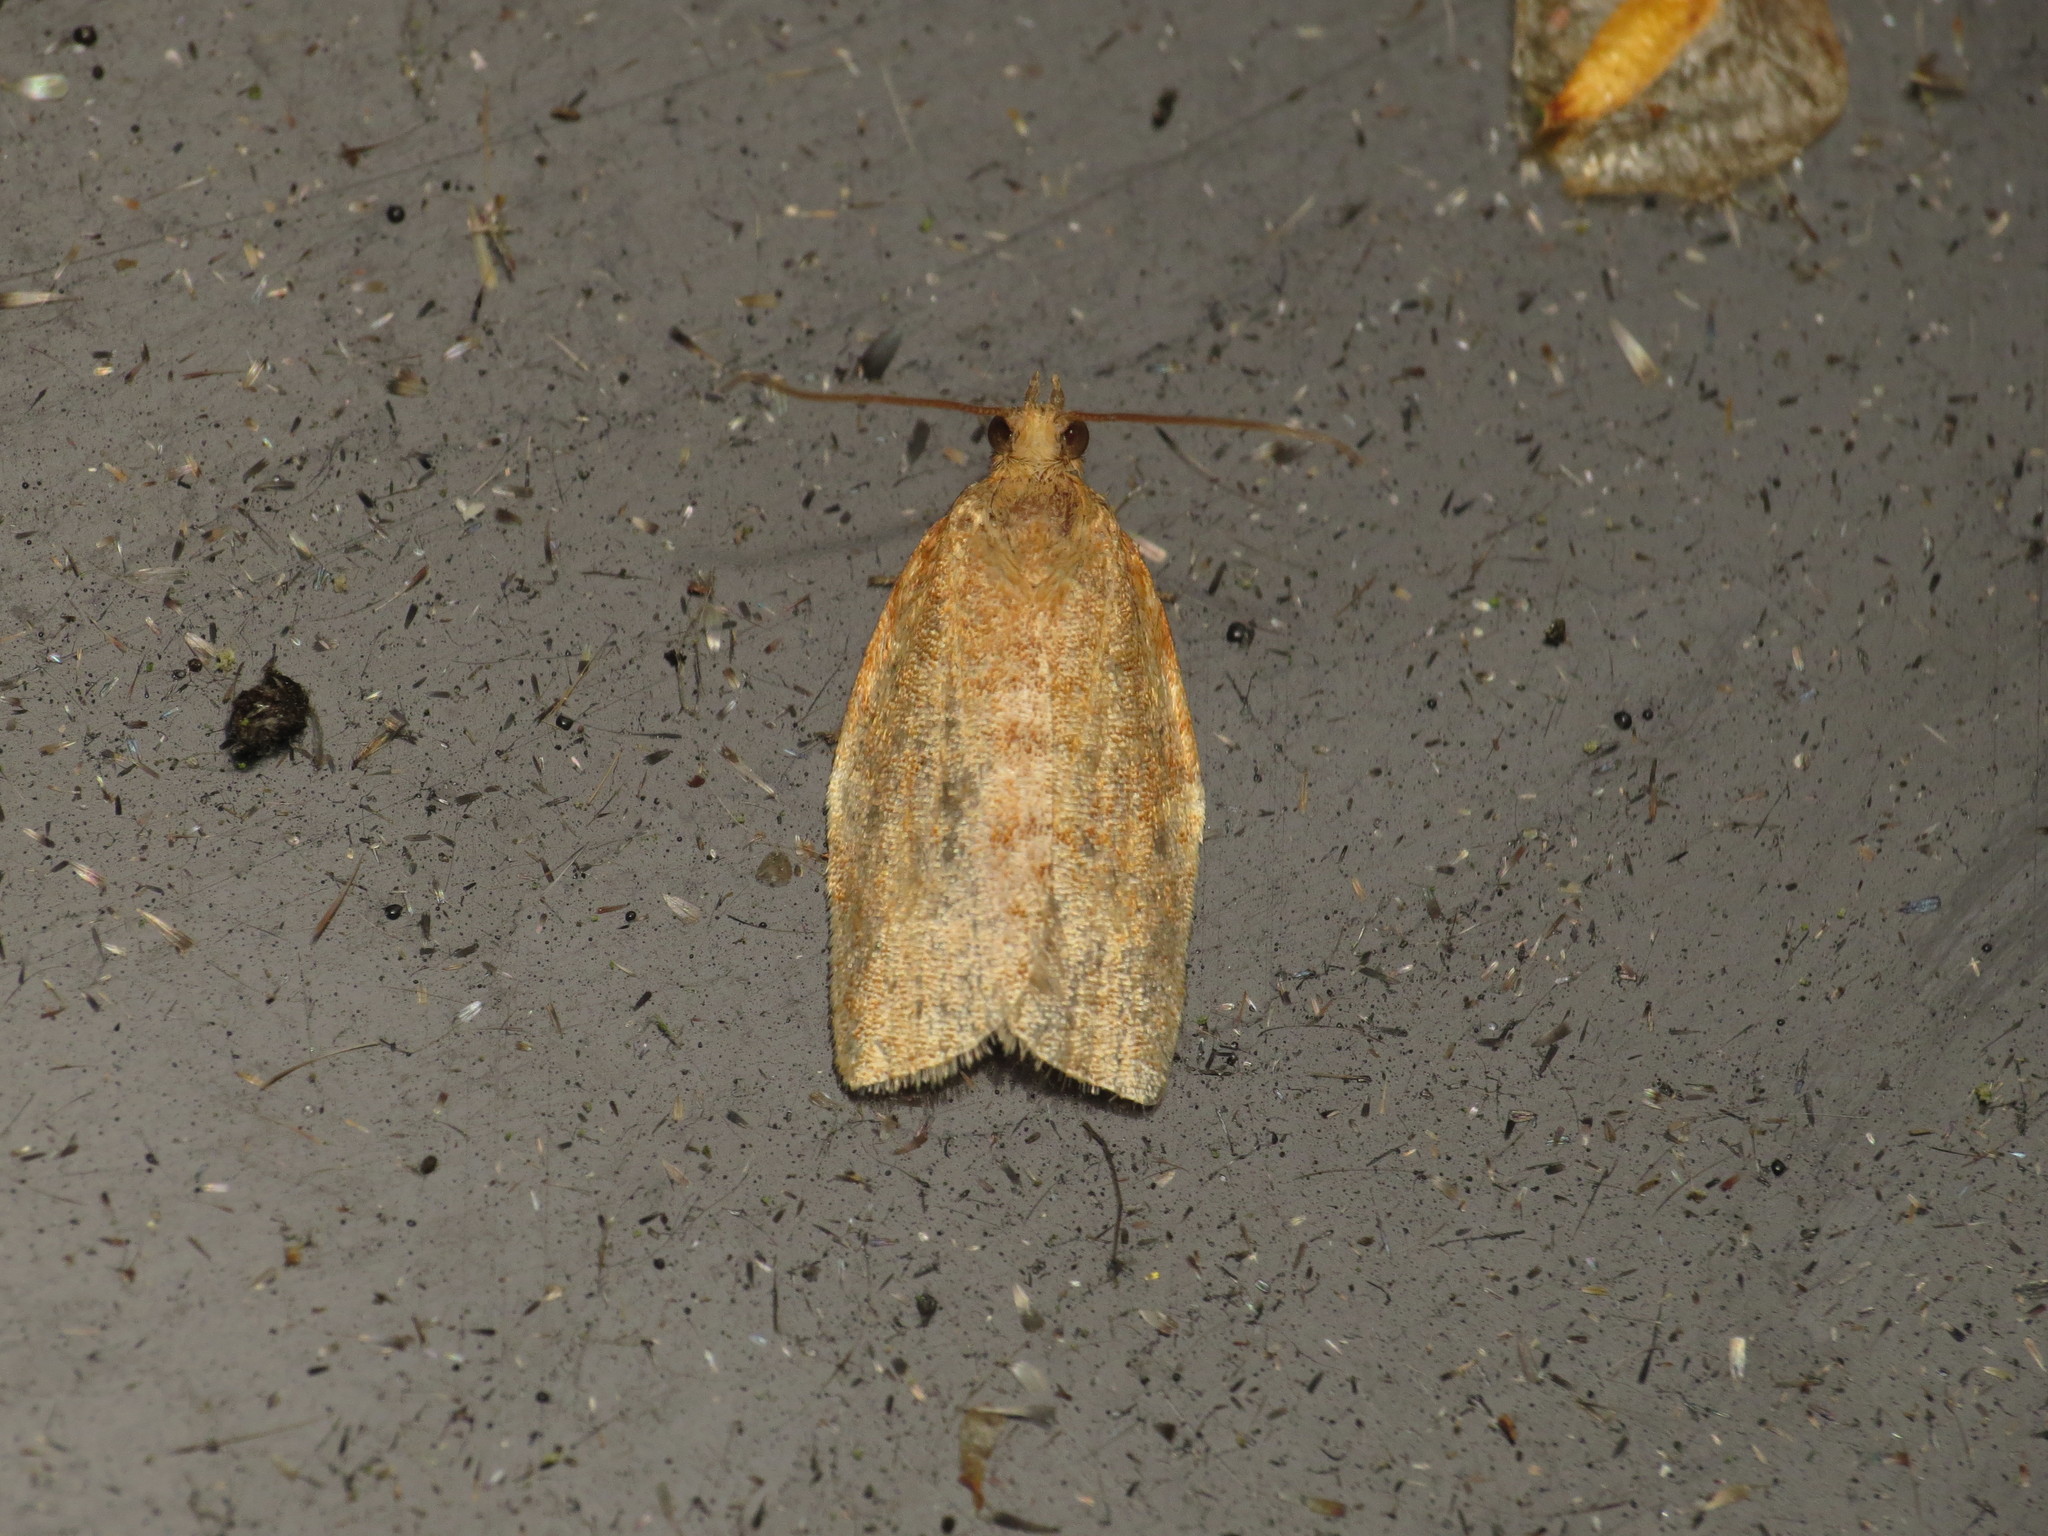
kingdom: Animalia
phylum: Arthropoda
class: Insecta
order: Lepidoptera
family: Tortricidae
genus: Clepsis
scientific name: Clepsis consimilana
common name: Privet tortrix
